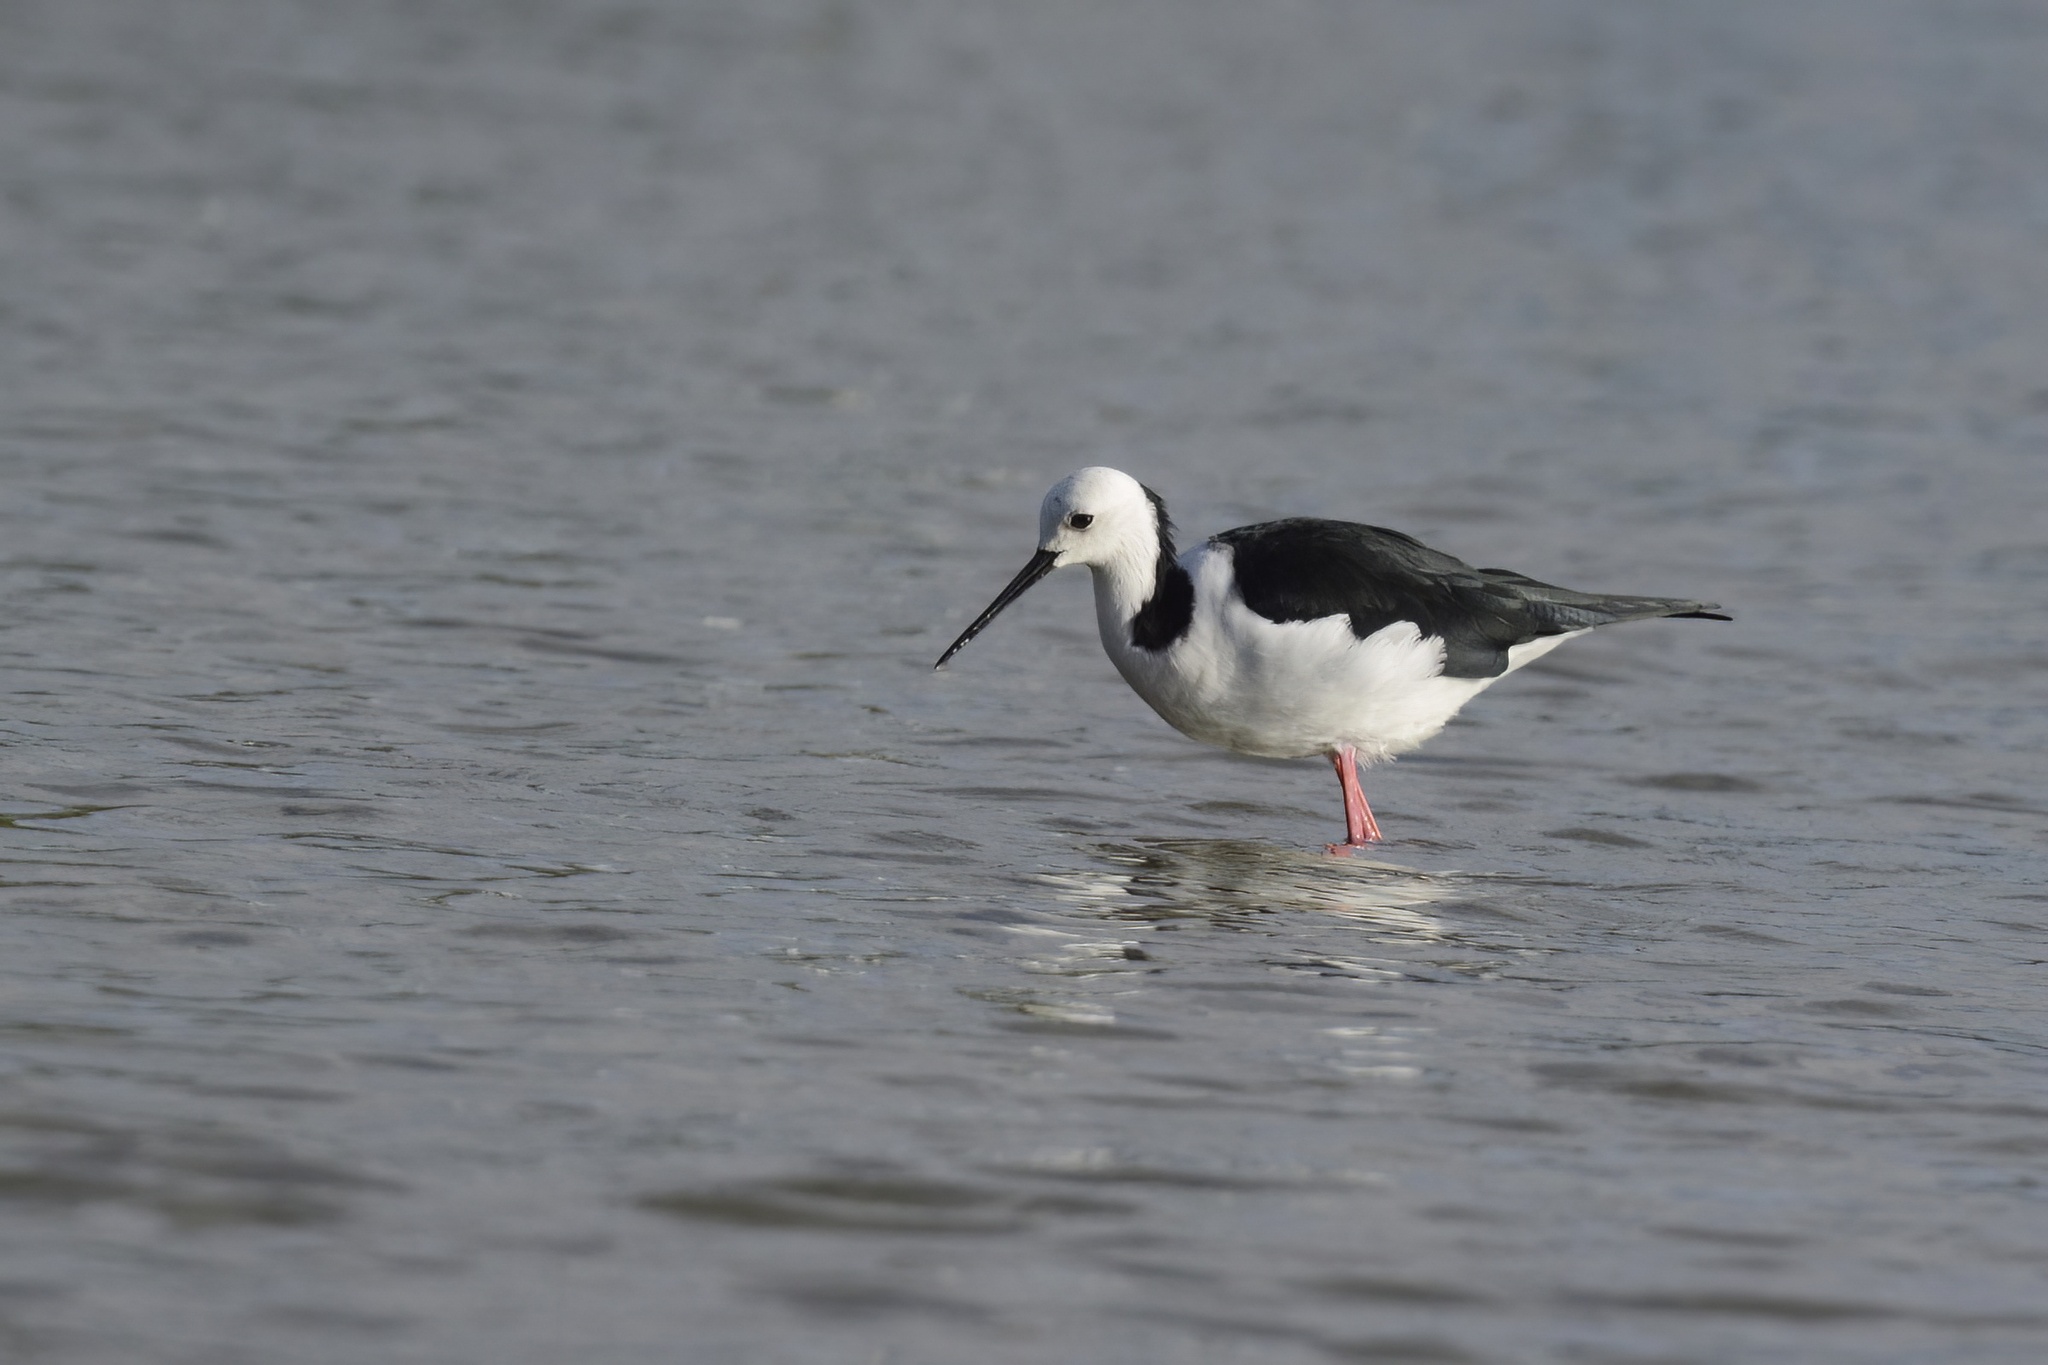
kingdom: Animalia
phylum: Chordata
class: Aves
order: Charadriiformes
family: Recurvirostridae
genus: Himantopus
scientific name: Himantopus leucocephalus
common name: White-headed stilt
